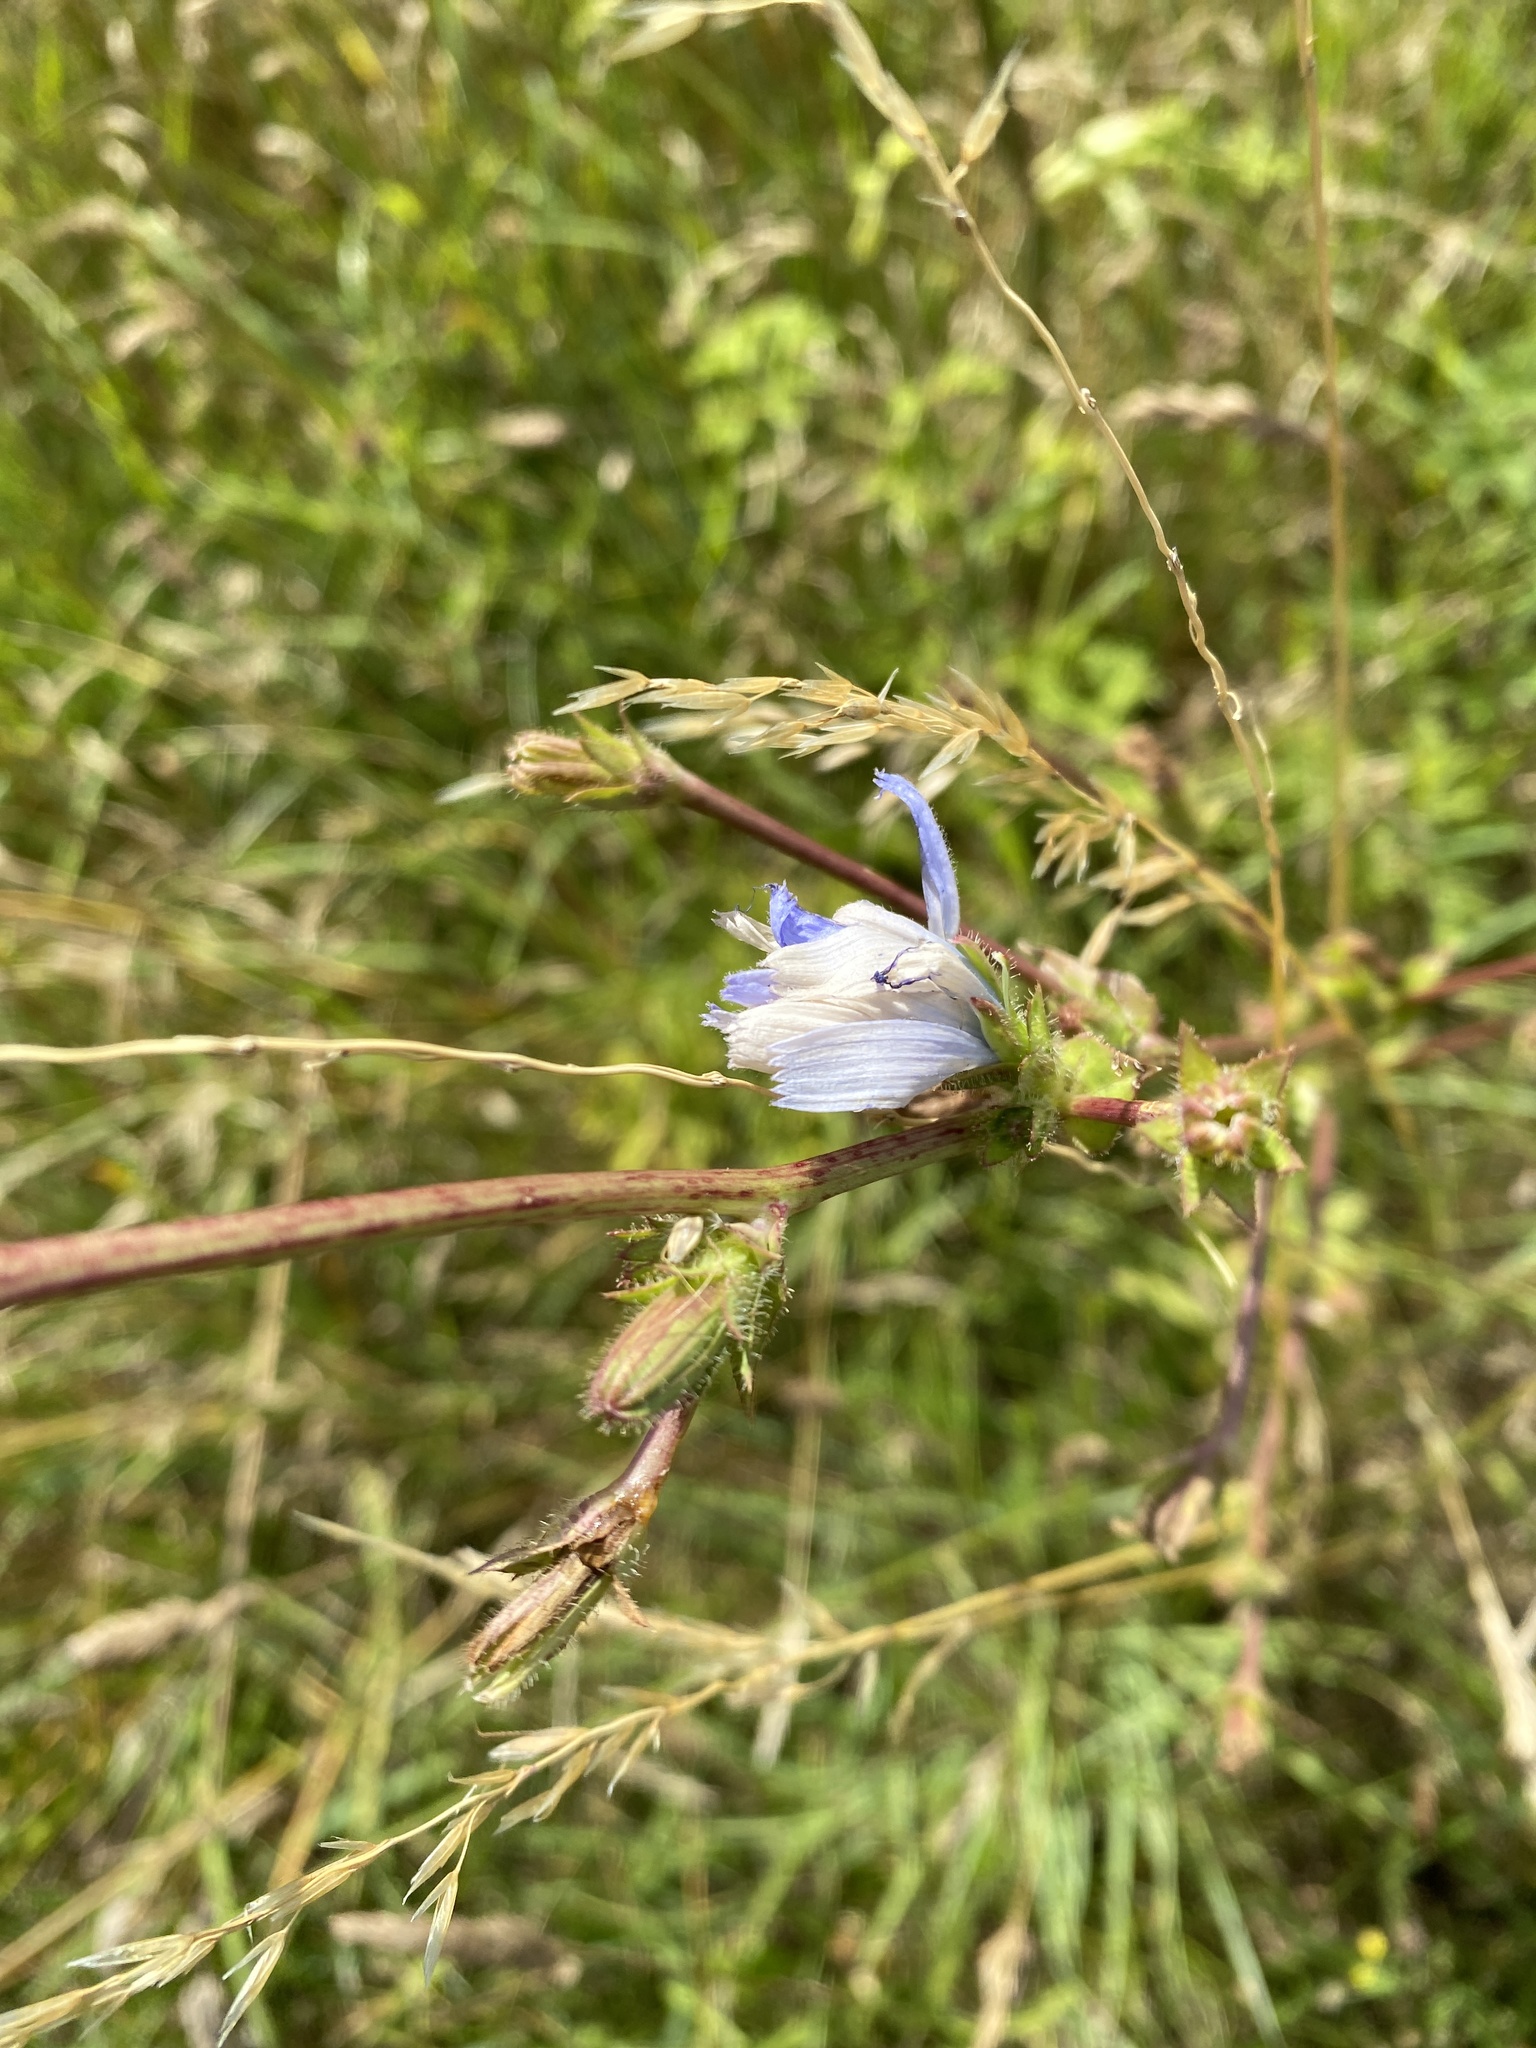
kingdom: Plantae
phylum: Tracheophyta
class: Magnoliopsida
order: Asterales
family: Asteraceae
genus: Cichorium
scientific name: Cichorium intybus
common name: Chicory
